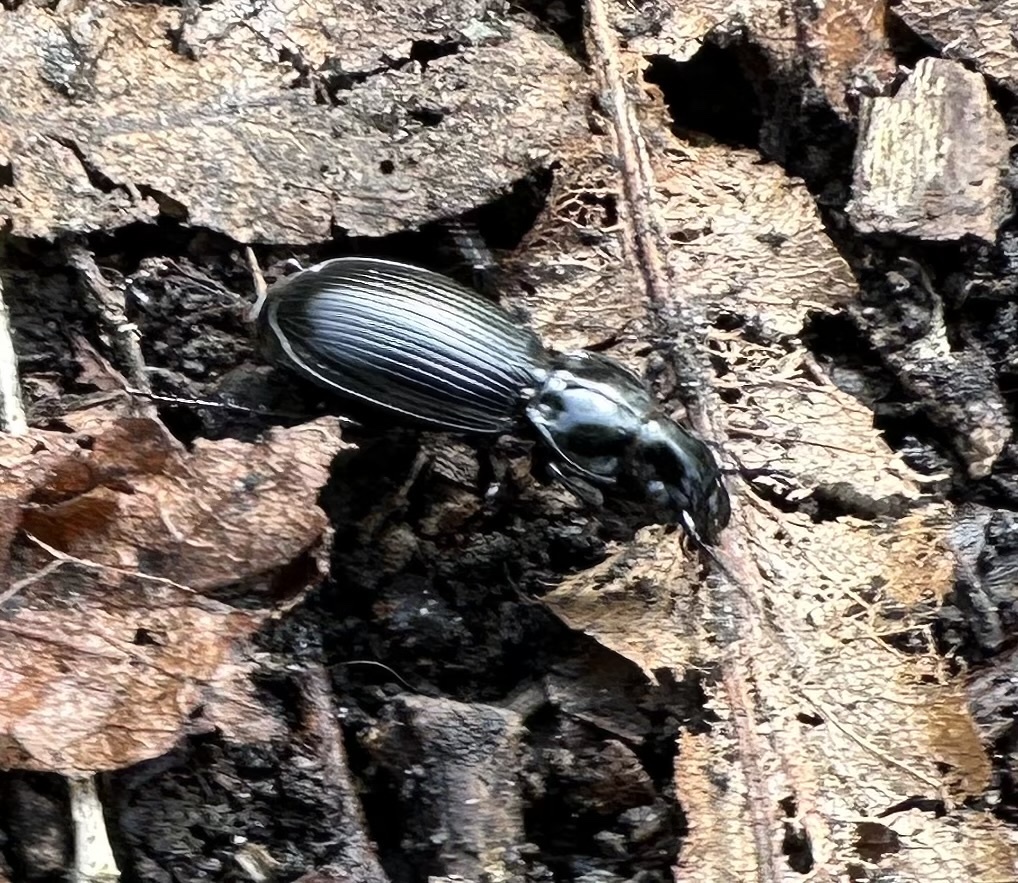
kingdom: Animalia
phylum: Arthropoda
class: Insecta
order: Coleoptera
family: Carabidae
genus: Pterostichus
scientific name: Pterostichus madidus
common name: Black clock
